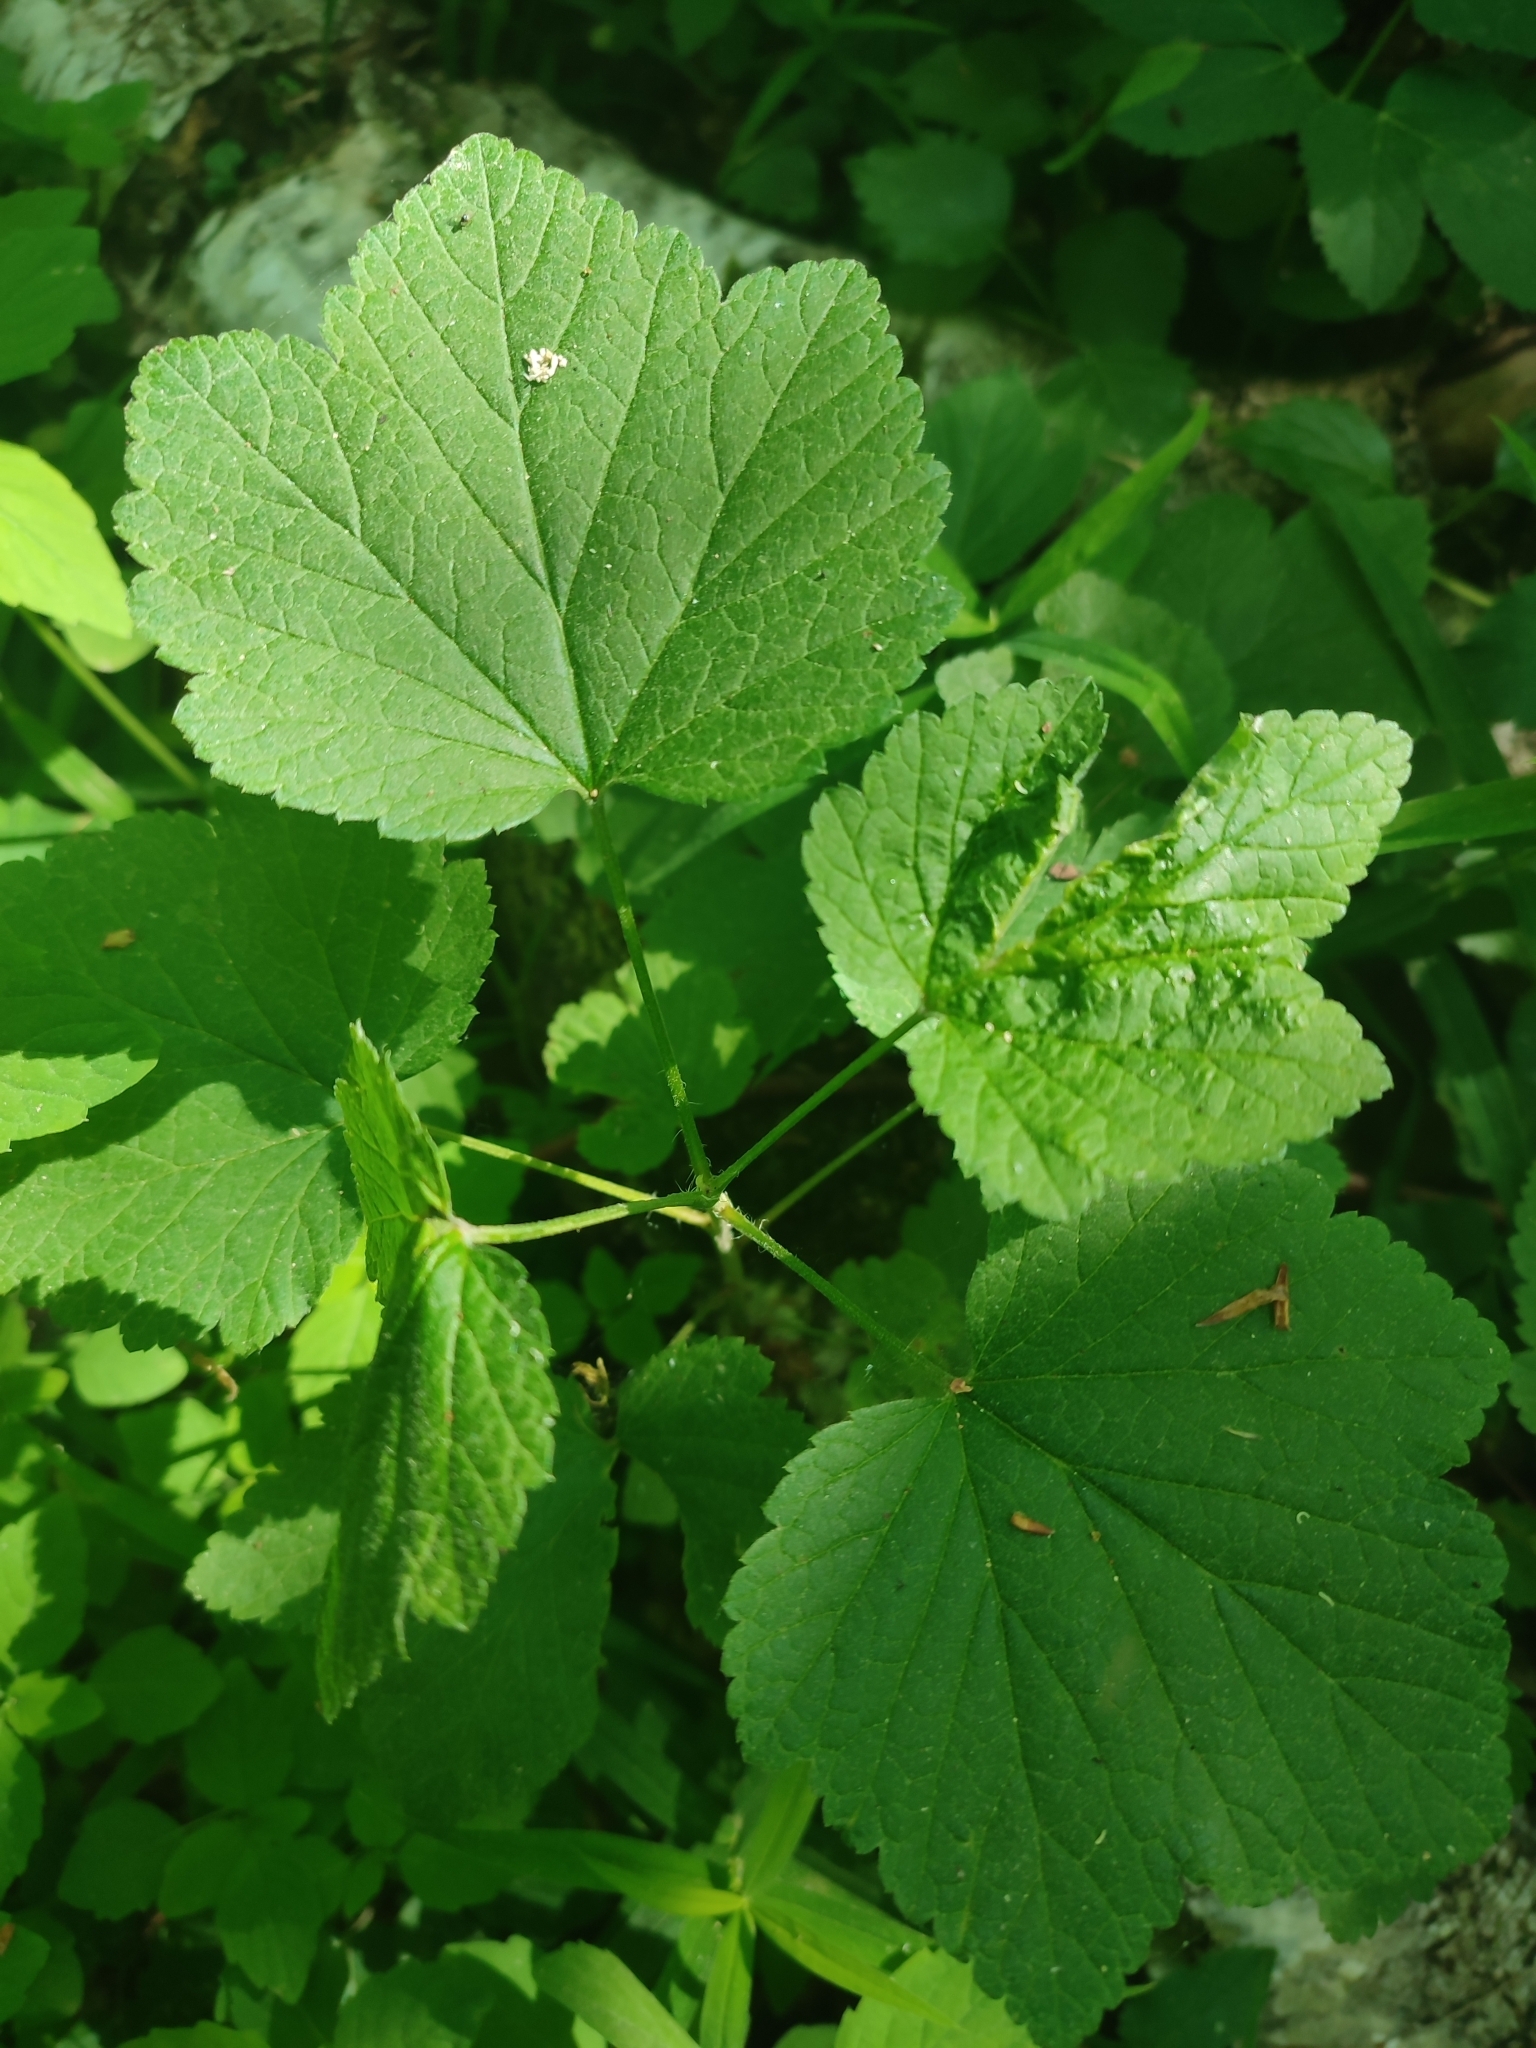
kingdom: Plantae
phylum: Tracheophyta
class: Magnoliopsida
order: Saxifragales
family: Grossulariaceae
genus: Ribes
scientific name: Ribes spicatum
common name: Downy currant
